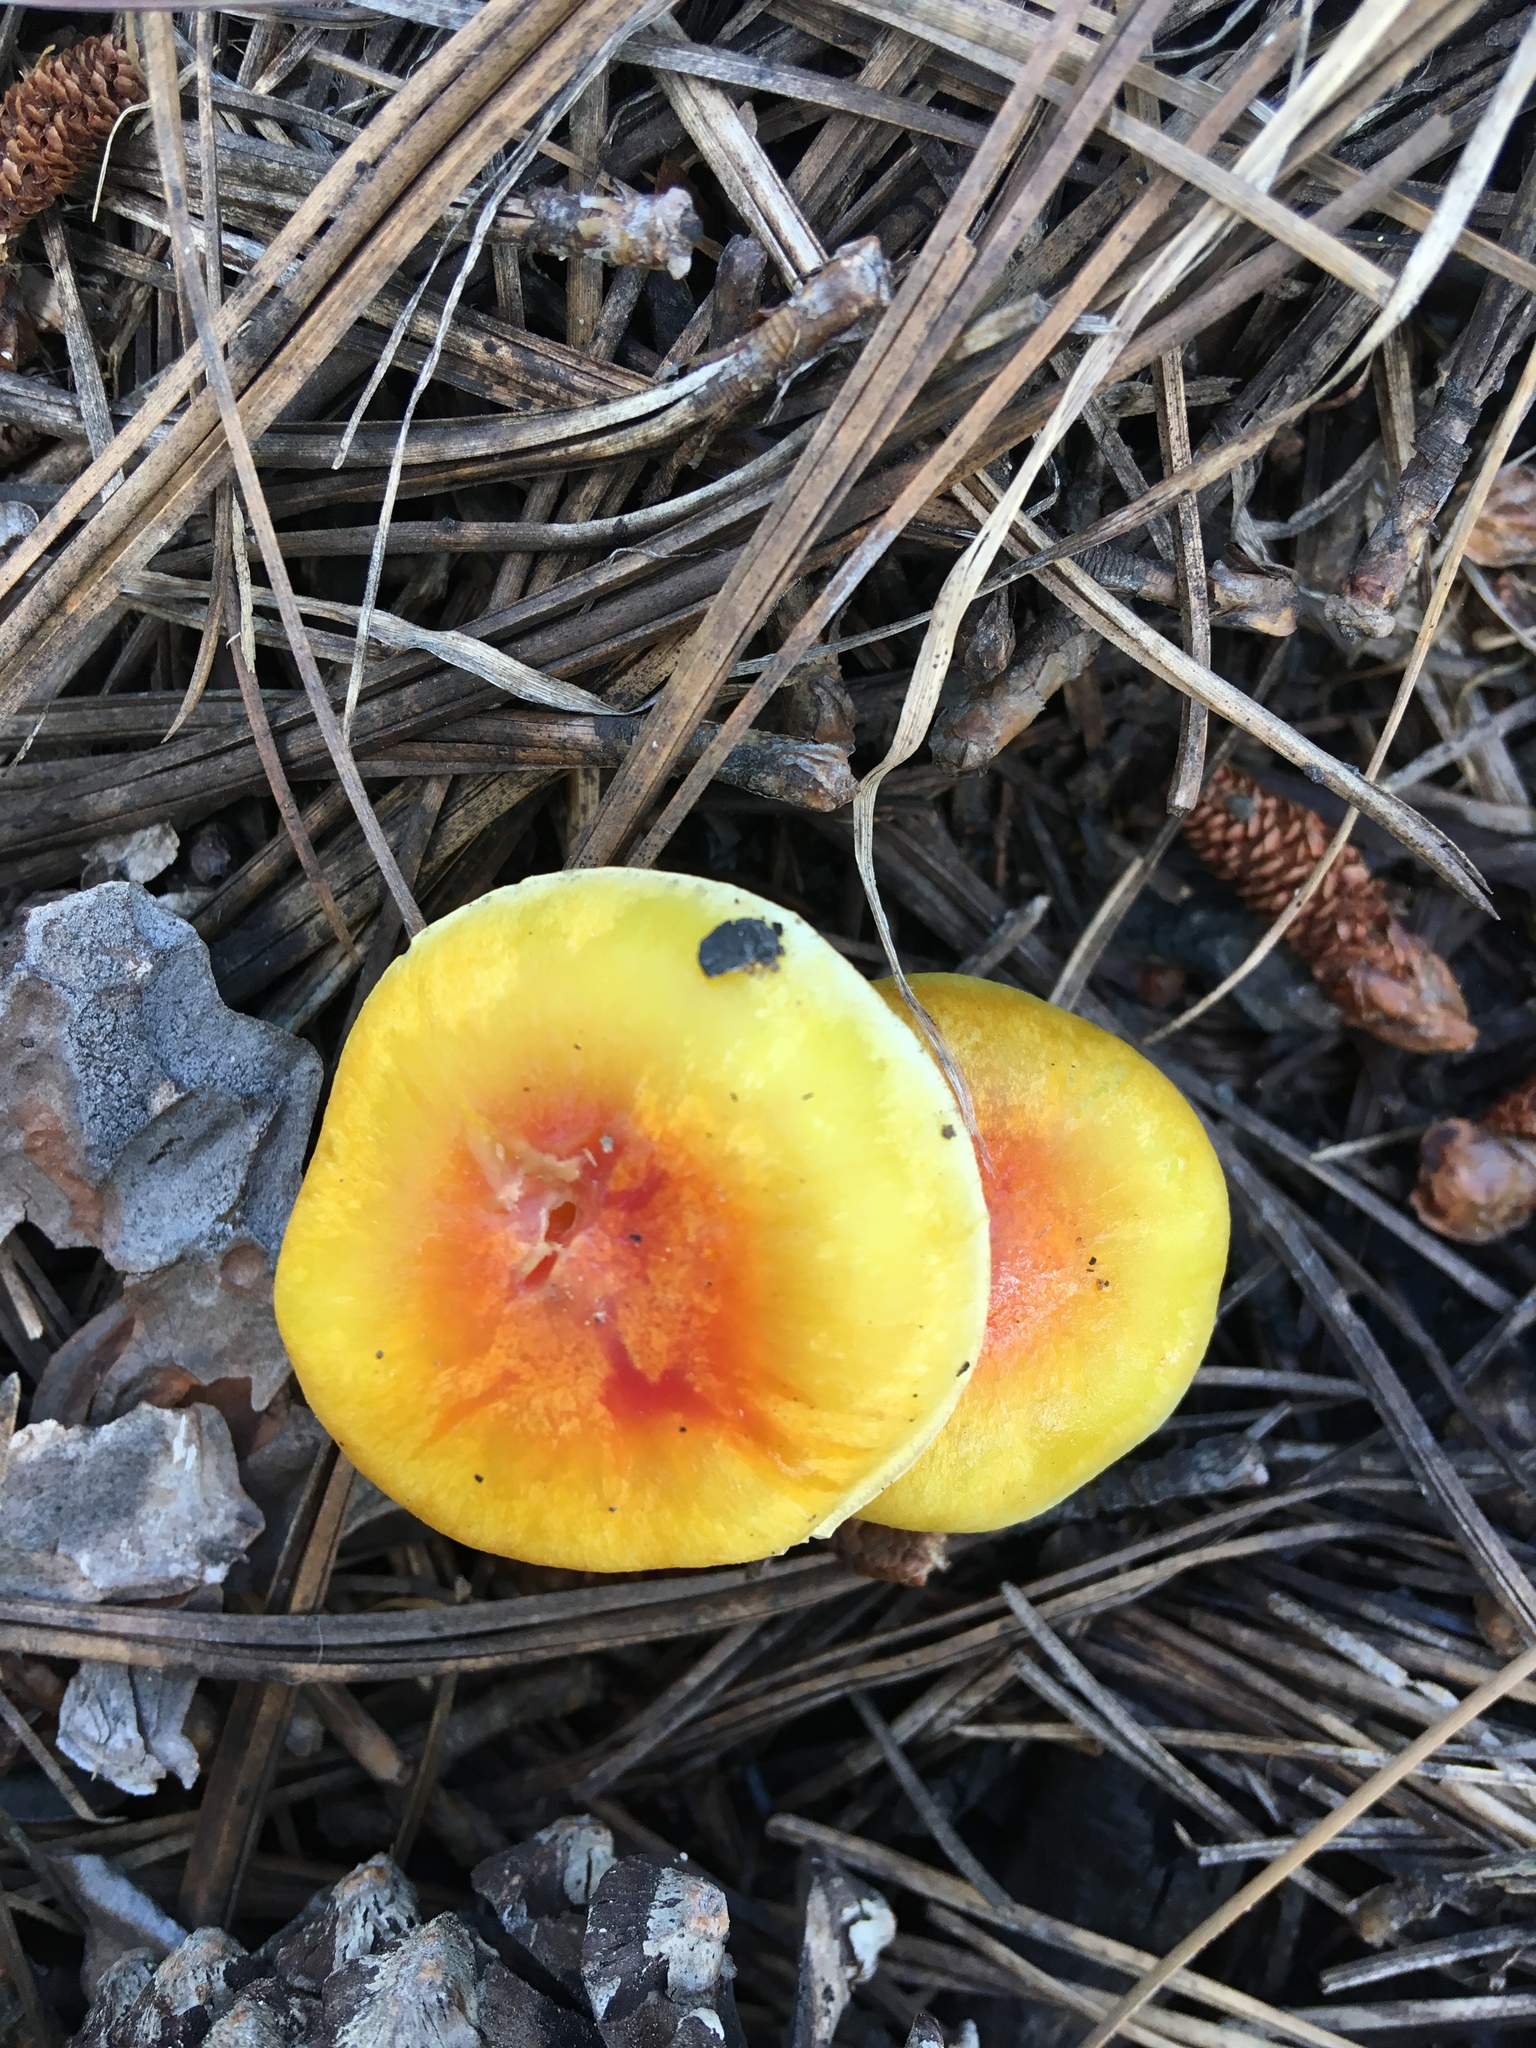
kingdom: Fungi
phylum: Basidiomycota
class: Agaricomycetes
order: Agaricales
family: Hygrophoraceae
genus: Hygrophorus
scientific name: Hygrophorus siccipes
